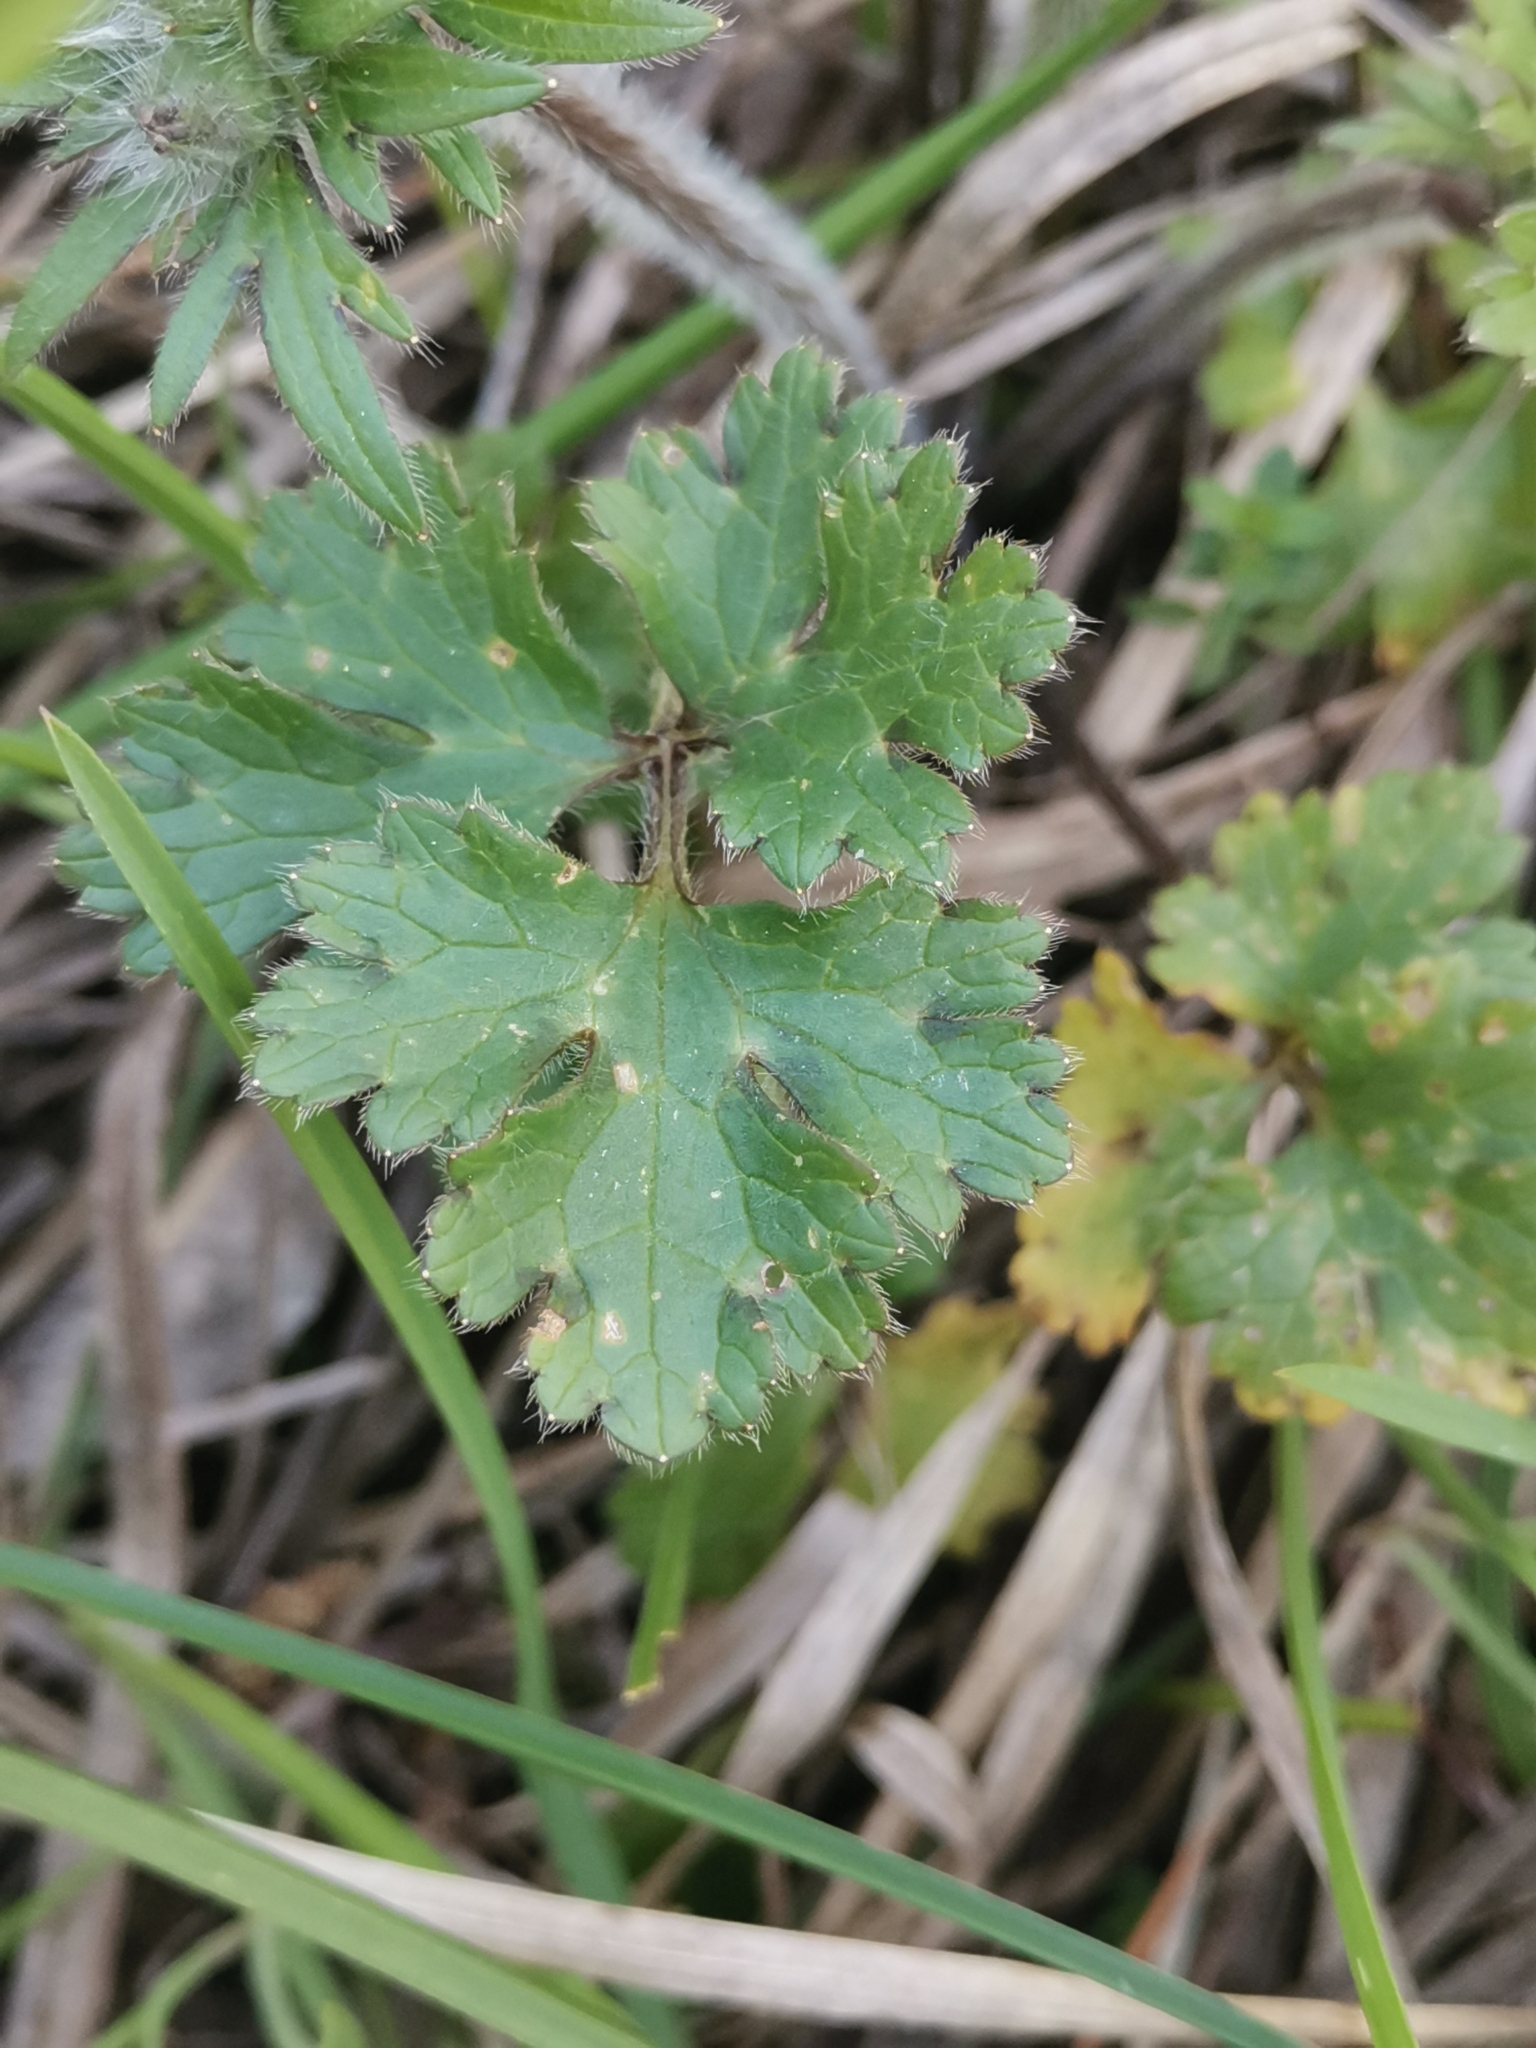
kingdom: Plantae
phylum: Tracheophyta
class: Magnoliopsida
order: Ranunculales
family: Ranunculaceae
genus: Ranunculus
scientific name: Ranunculus bulbosus
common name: Bulbous buttercup
